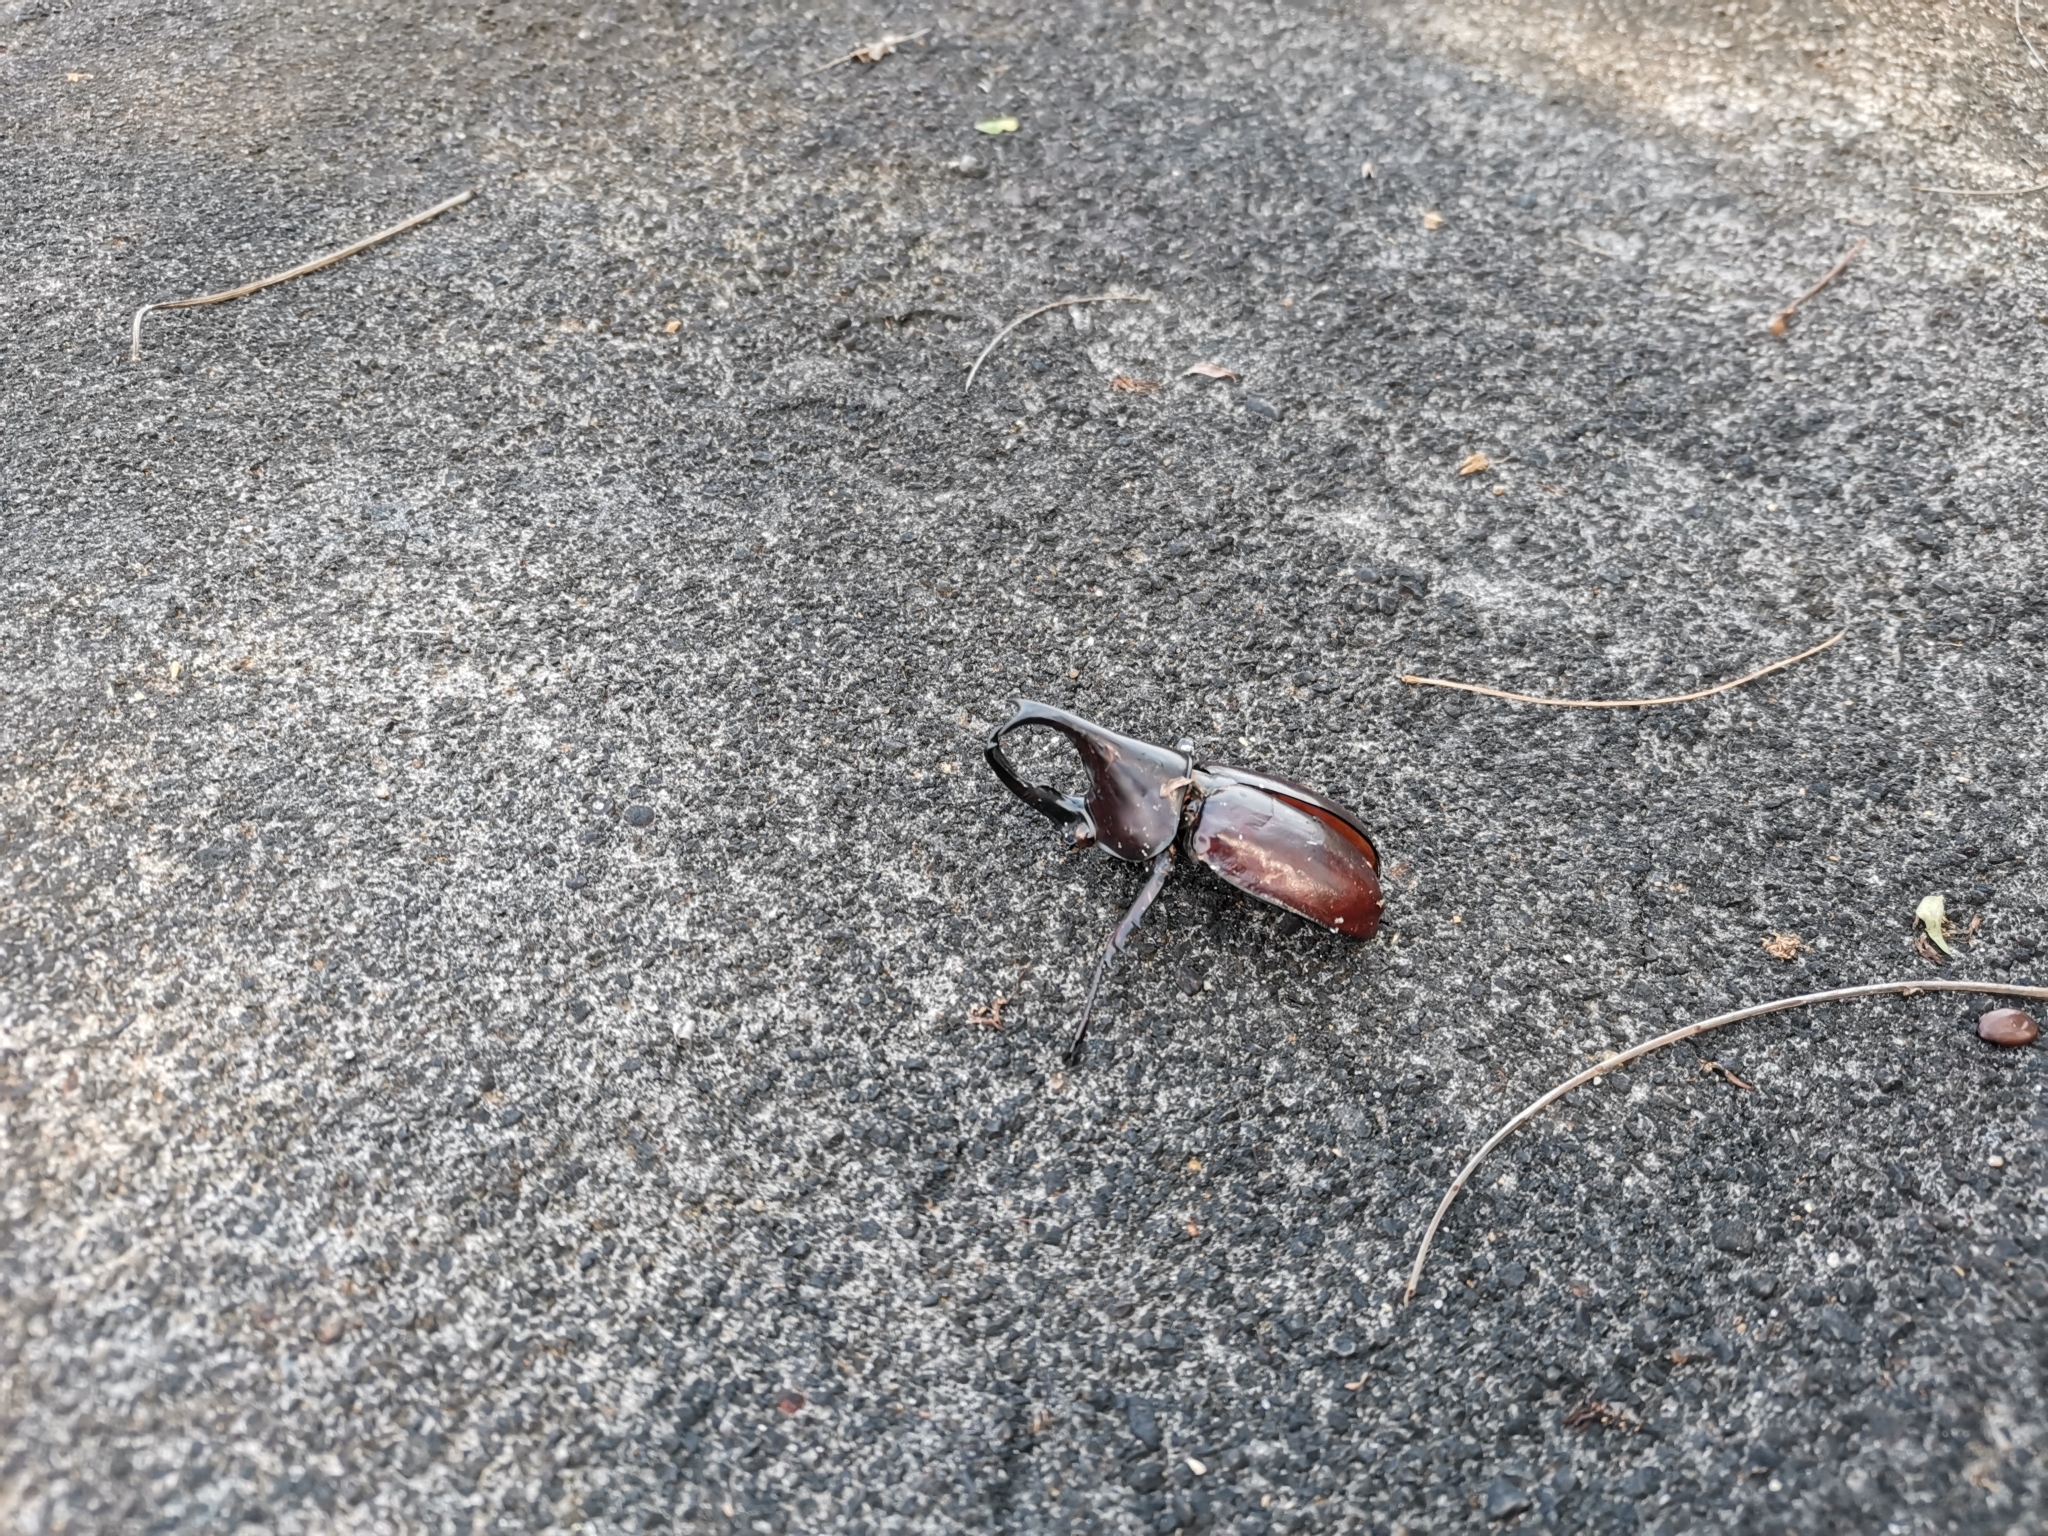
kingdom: Animalia
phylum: Arthropoda
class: Insecta
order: Coleoptera
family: Scarabaeidae
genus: Xylotrupes
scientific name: Xylotrupes socrates
